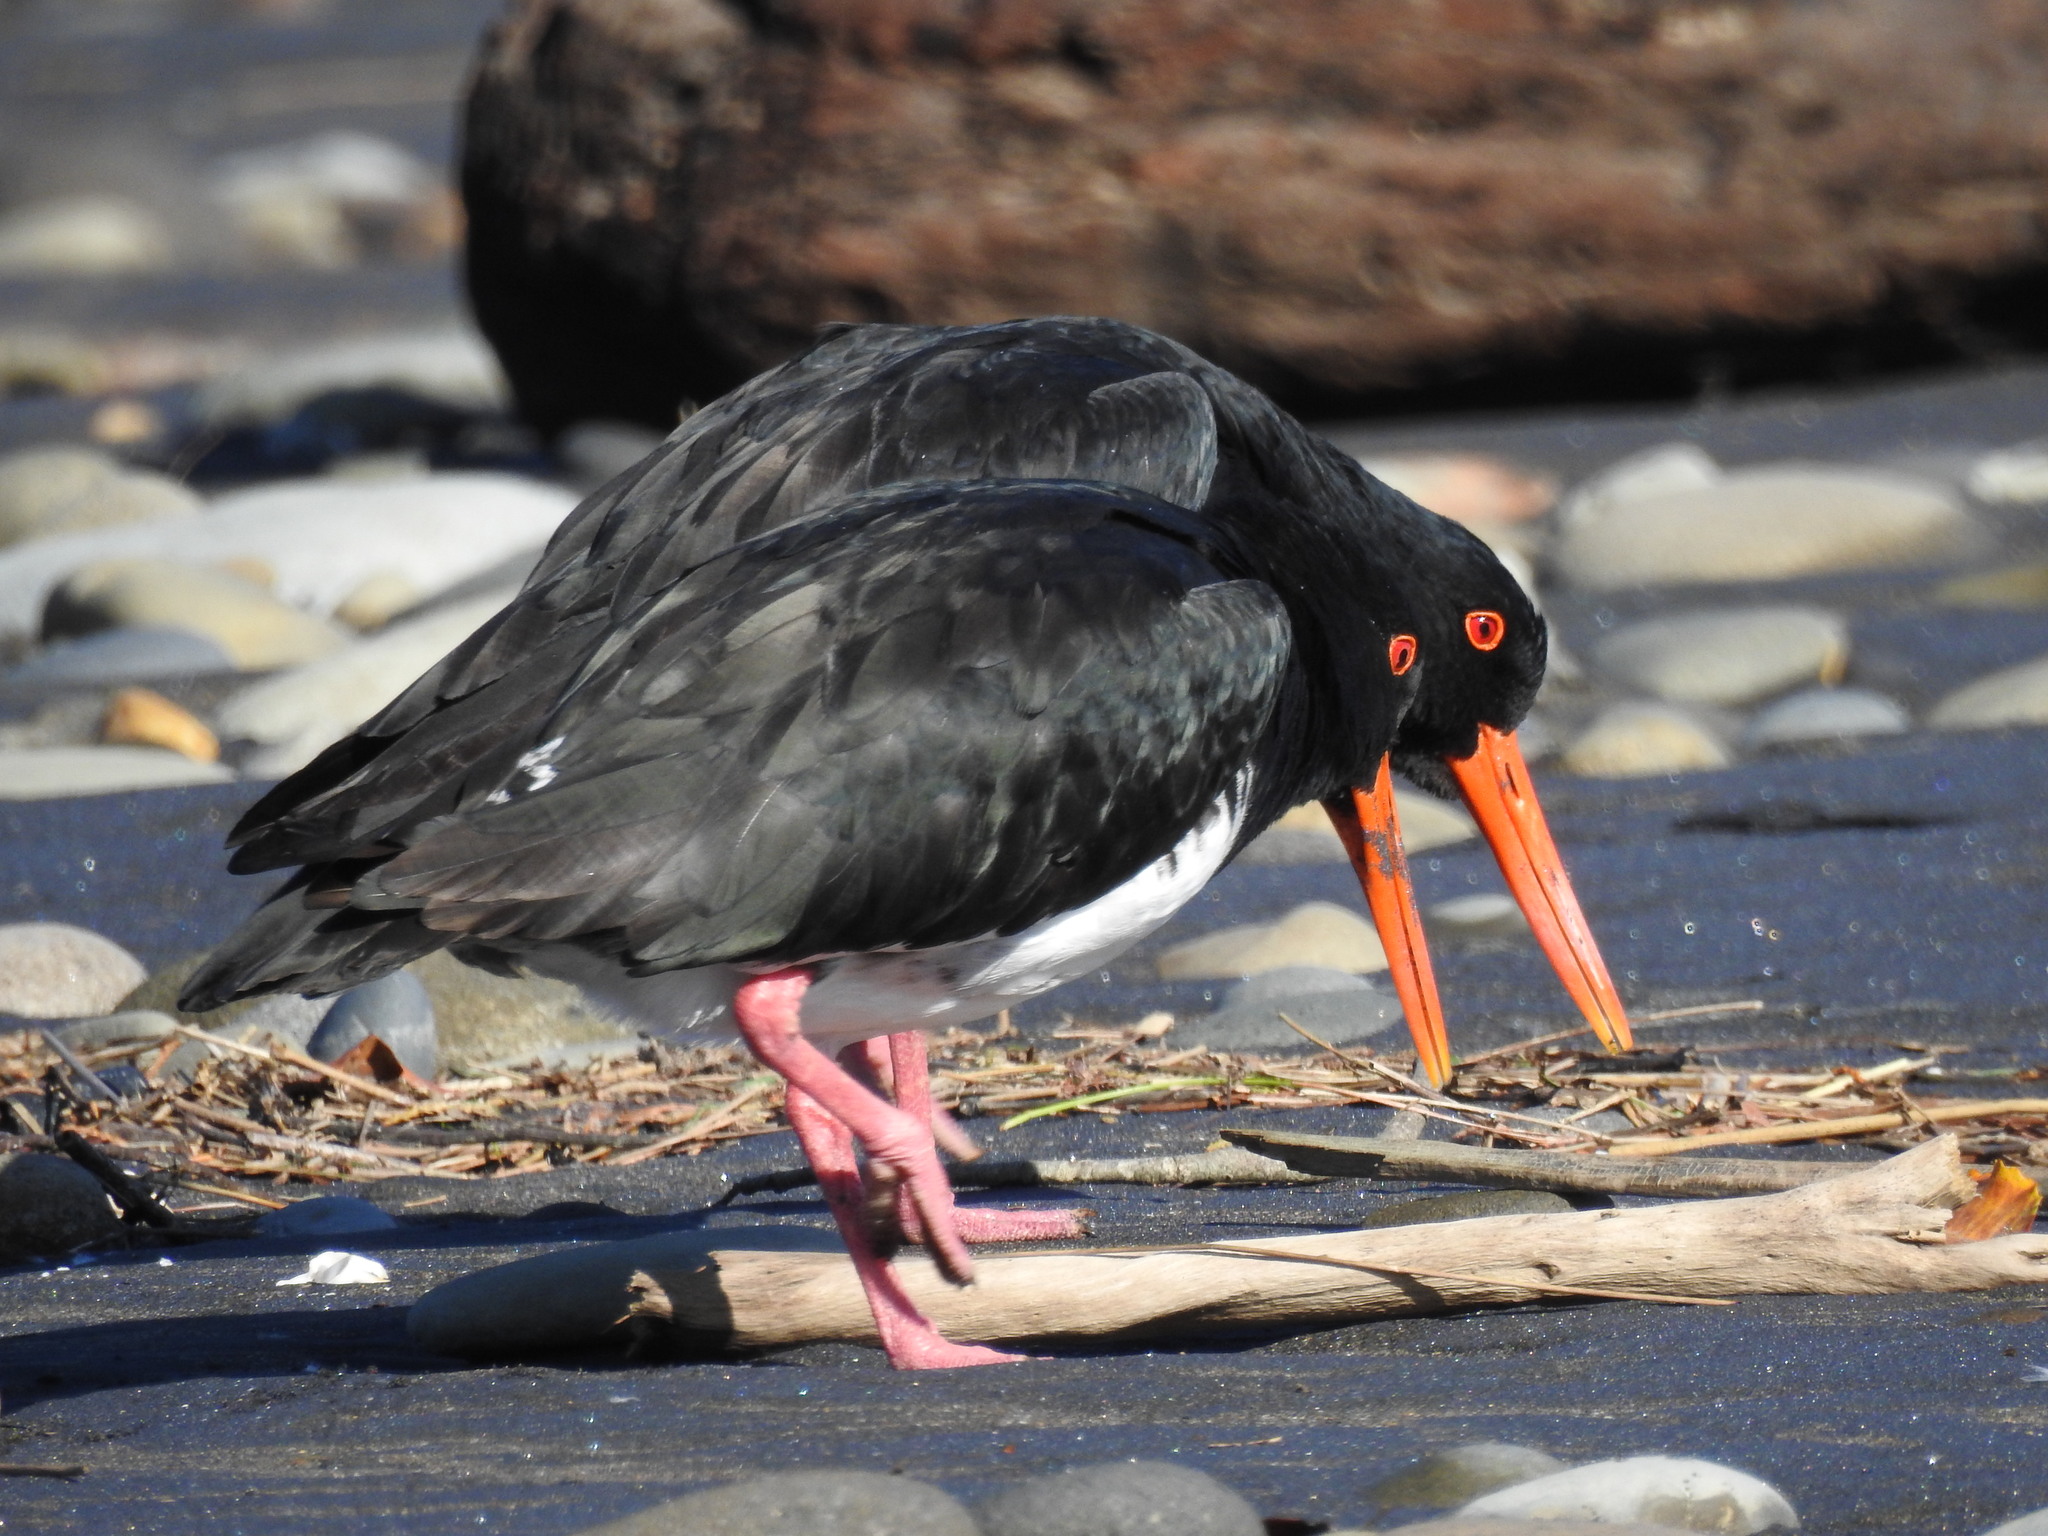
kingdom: Animalia
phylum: Chordata
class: Aves
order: Charadriiformes
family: Haematopodidae
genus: Haematopus
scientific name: Haematopus unicolor
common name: Variable oystercatcher
